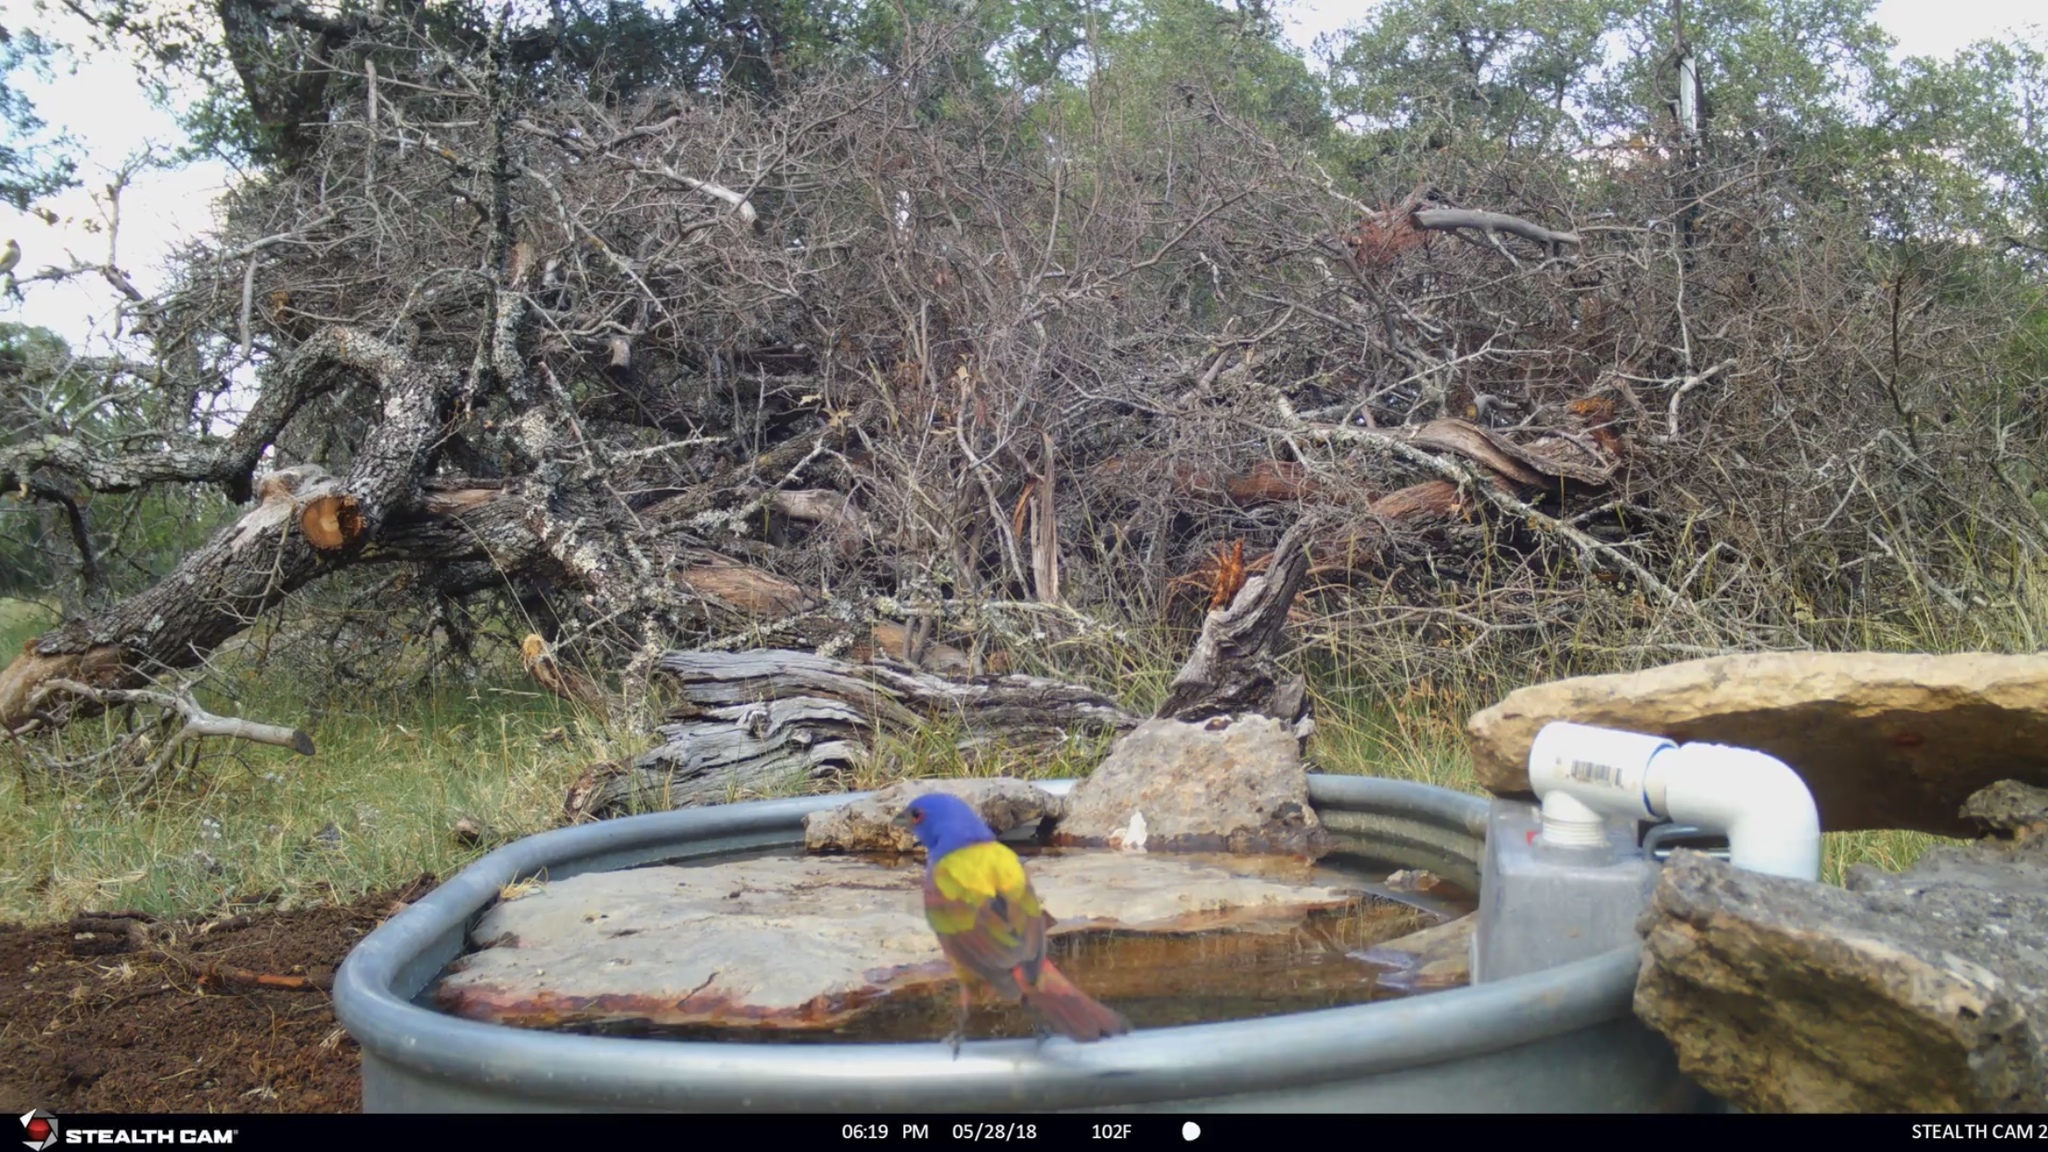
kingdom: Animalia
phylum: Chordata
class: Aves
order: Passeriformes
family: Cardinalidae
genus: Passerina
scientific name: Passerina ciris
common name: Painted bunting
